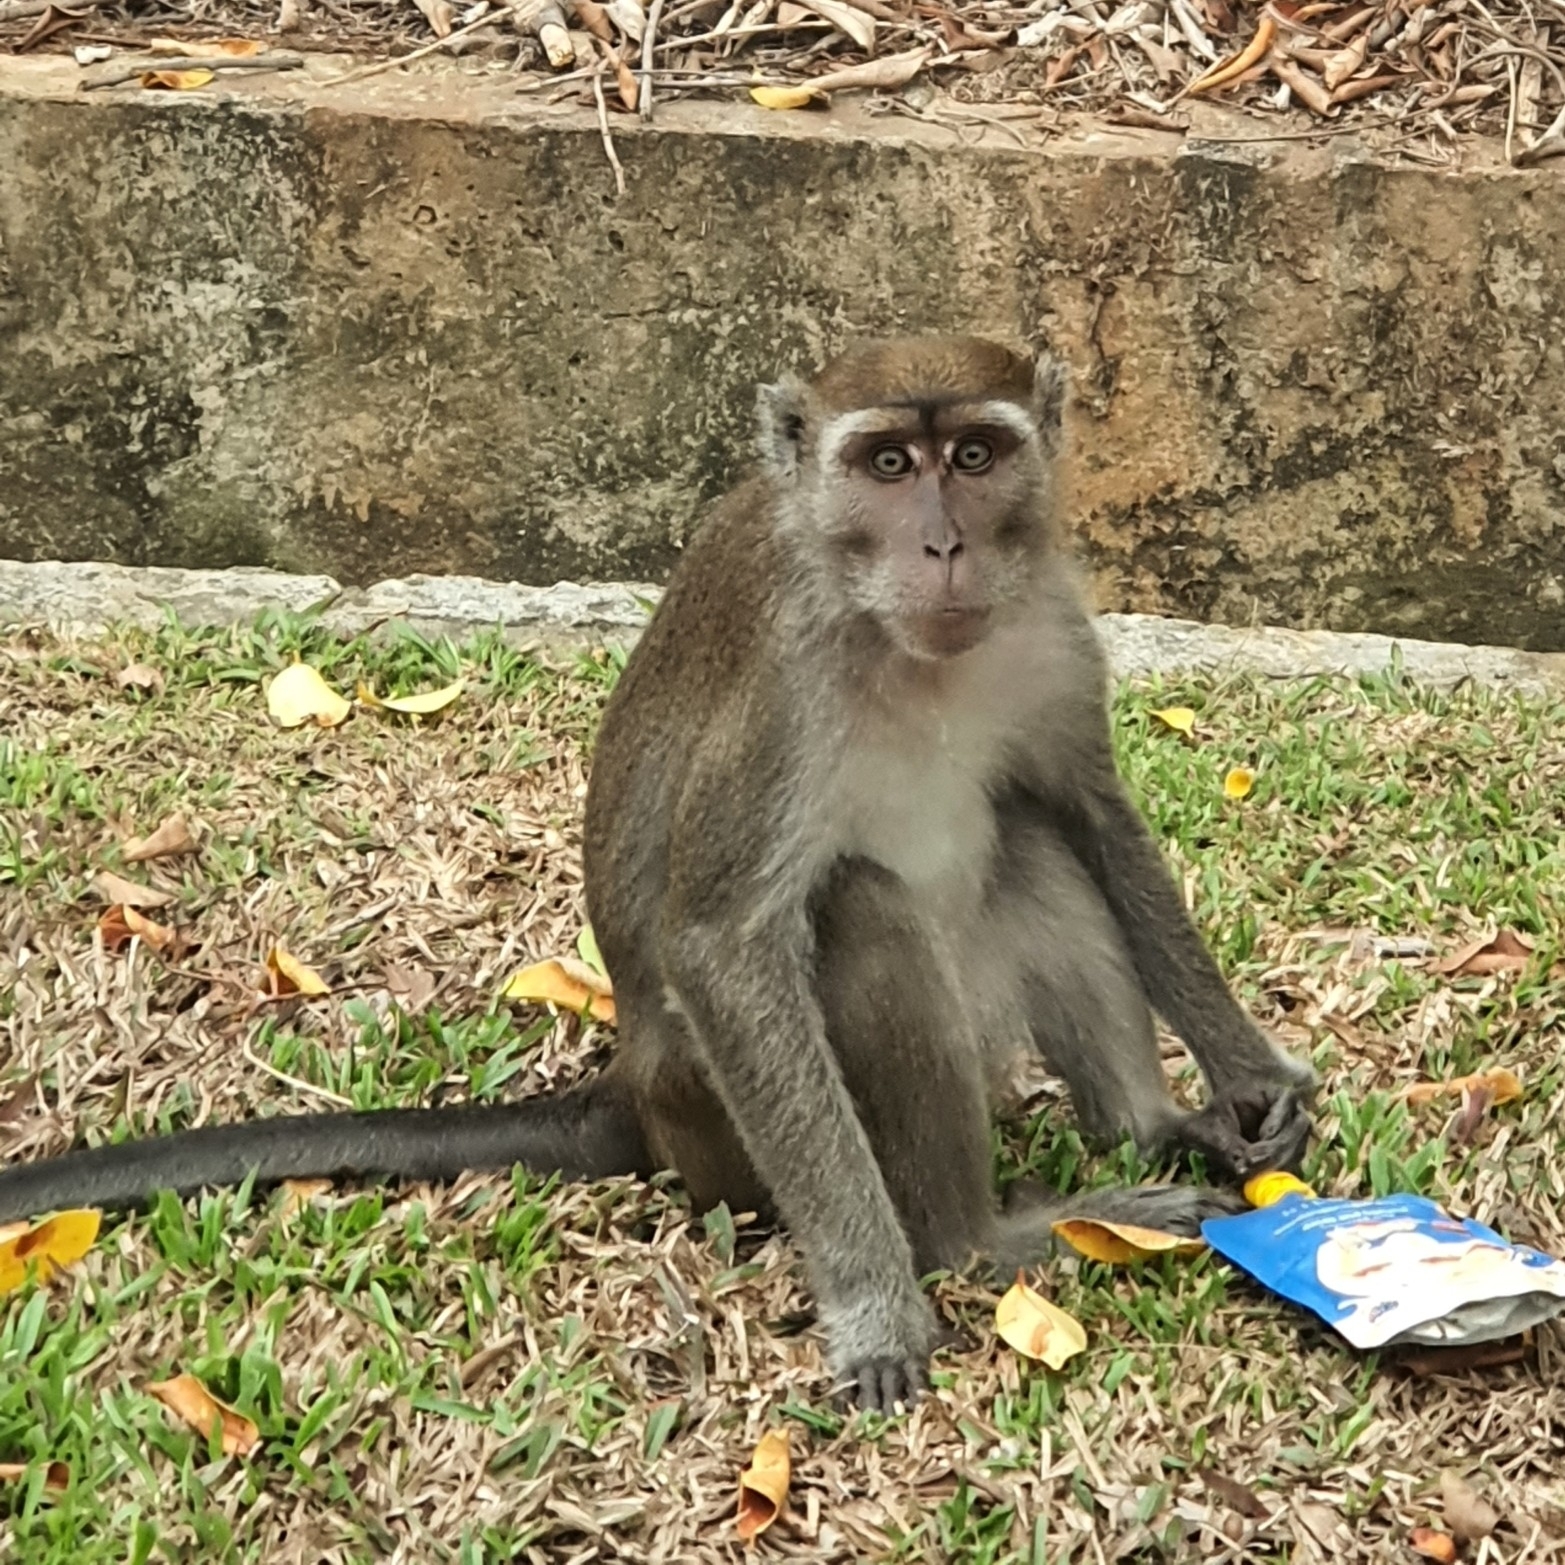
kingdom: Animalia
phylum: Chordata
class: Mammalia
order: Primates
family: Cercopithecidae
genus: Macaca
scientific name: Macaca fascicularis
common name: Crab-eating macaque
